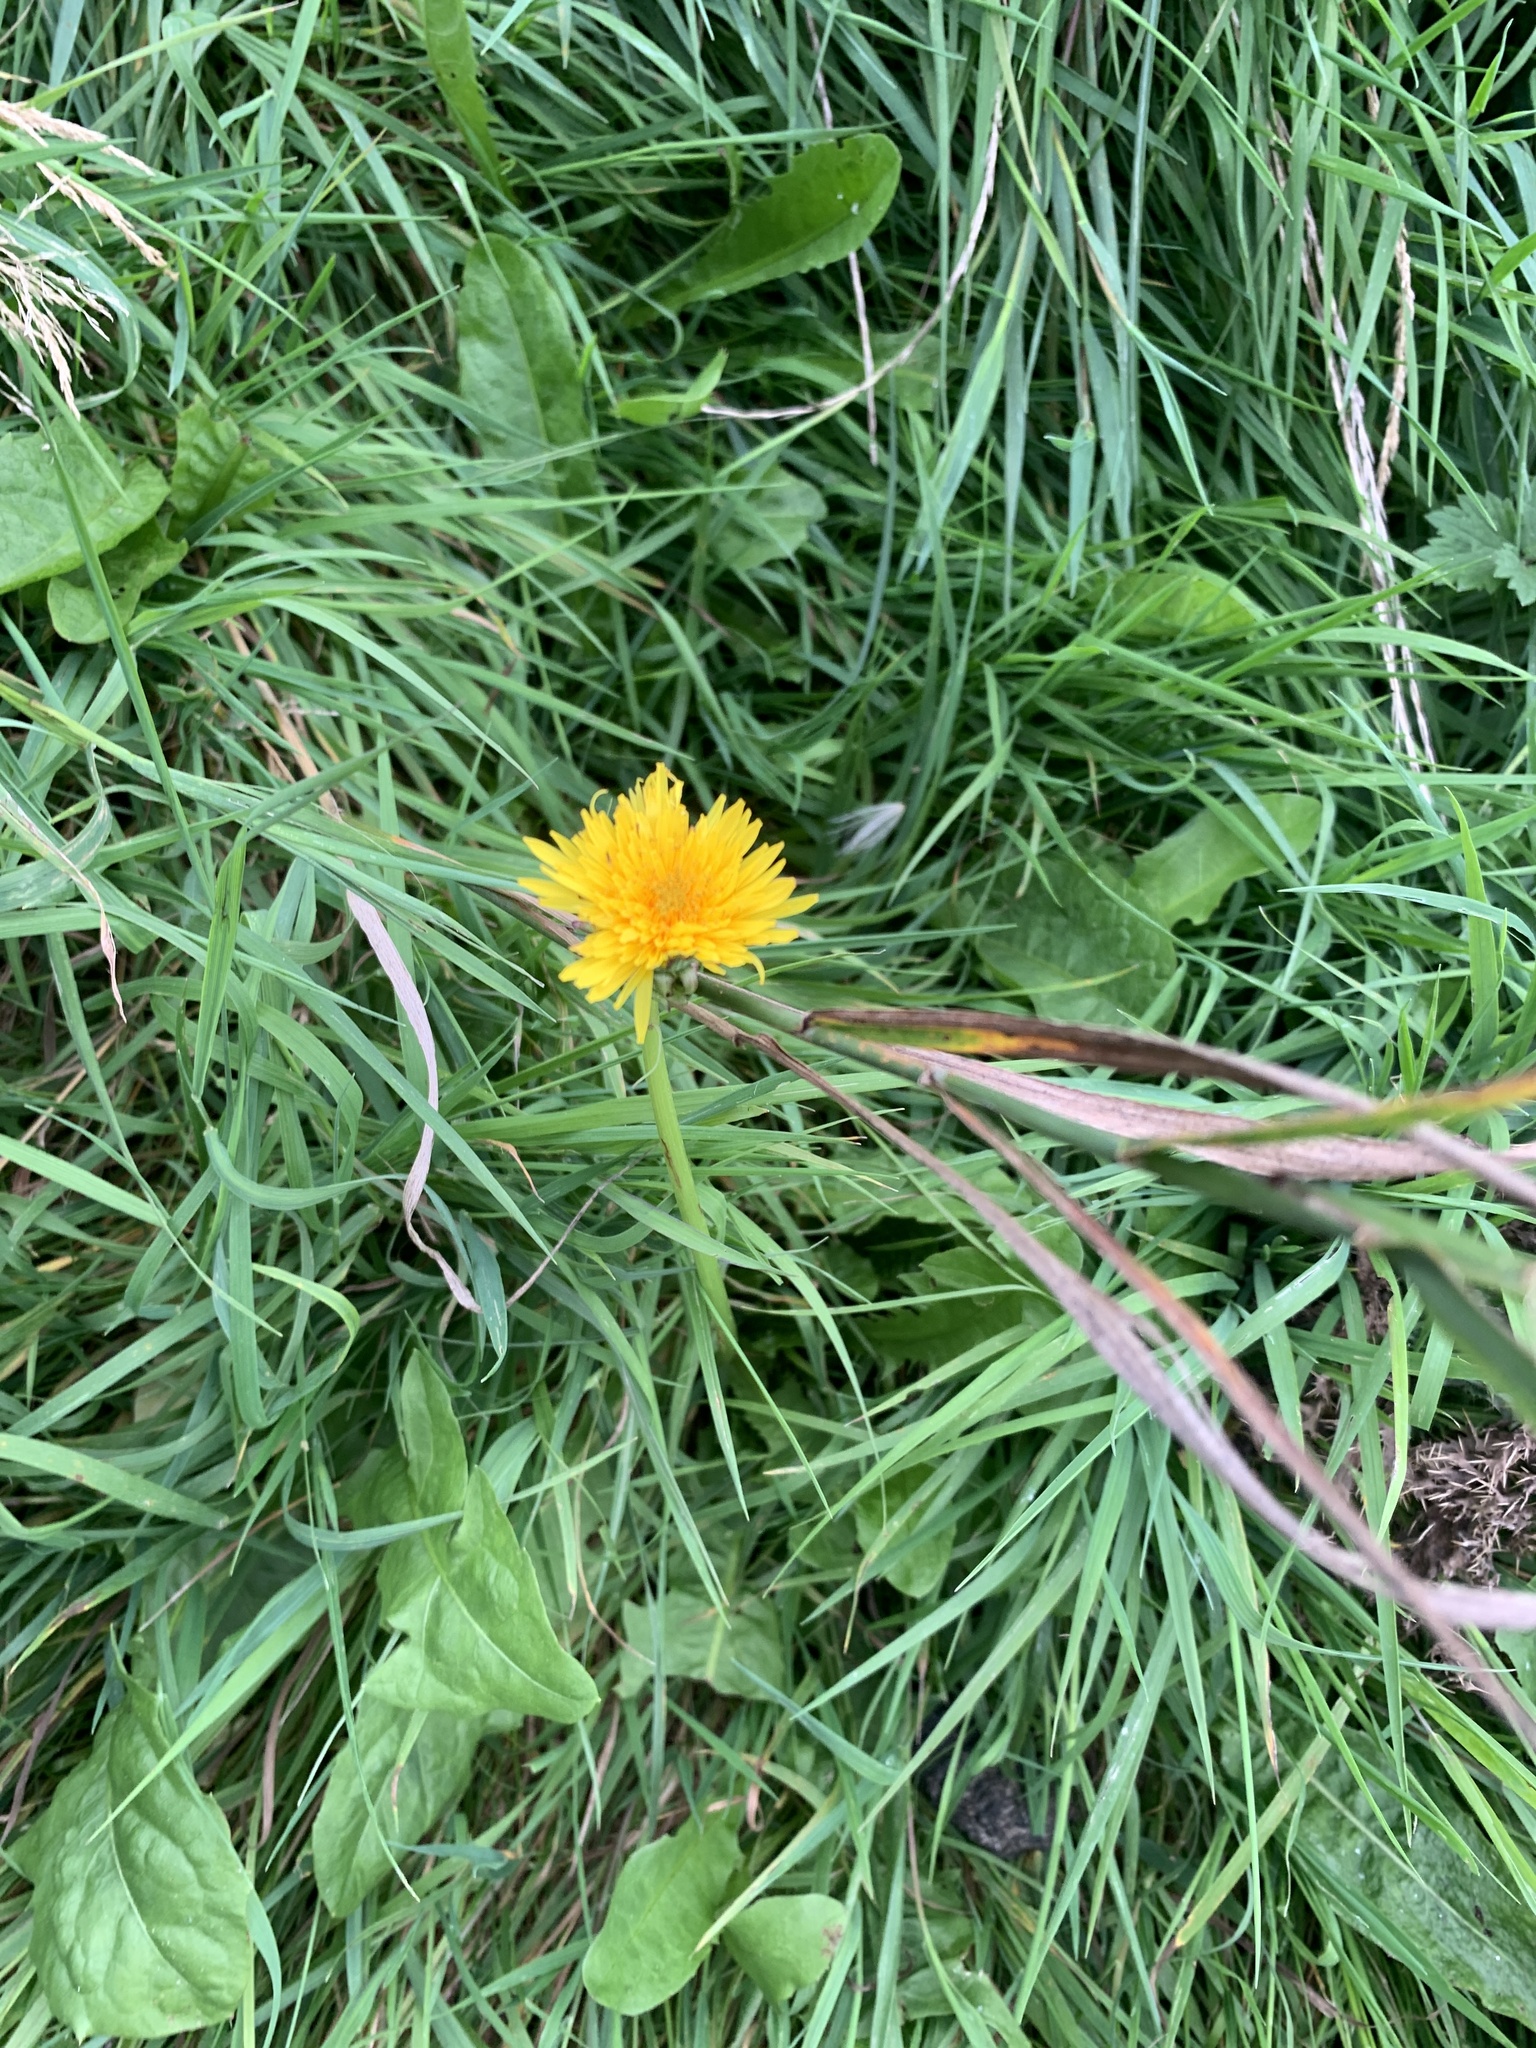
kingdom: Plantae
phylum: Tracheophyta
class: Magnoliopsida
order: Asterales
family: Asteraceae
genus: Taraxacum
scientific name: Taraxacum officinale
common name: Common dandelion
